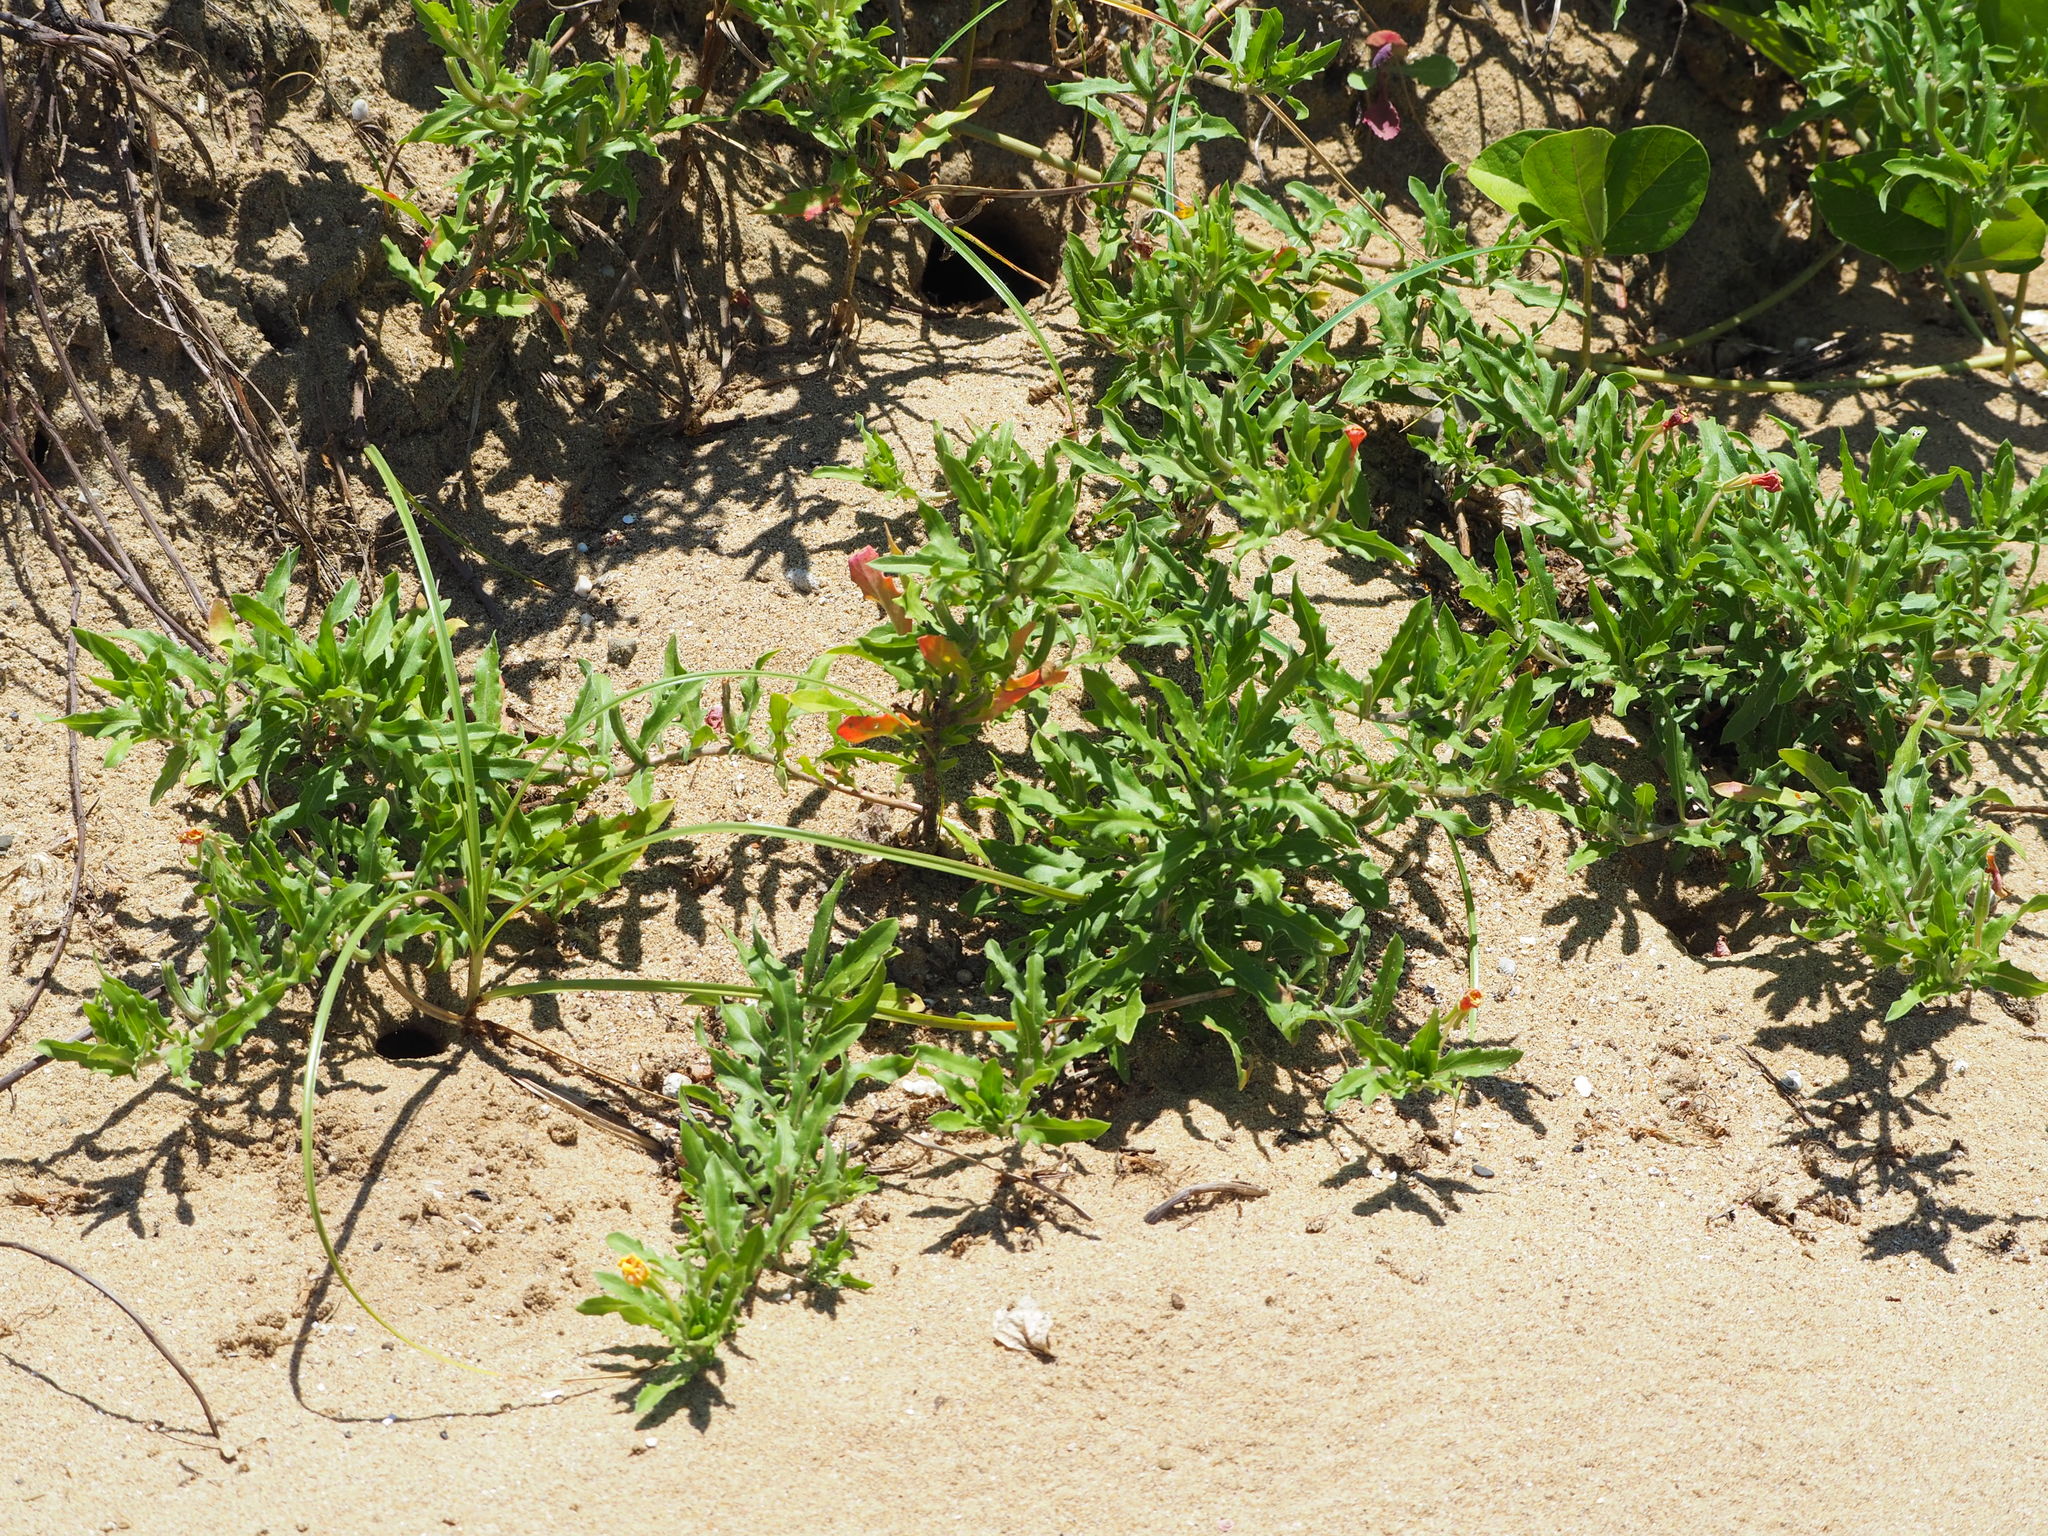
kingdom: Plantae
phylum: Tracheophyta
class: Magnoliopsida
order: Myrtales
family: Onagraceae
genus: Oenothera
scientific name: Oenothera laciniata
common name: Cut-leaved evening-primrose
